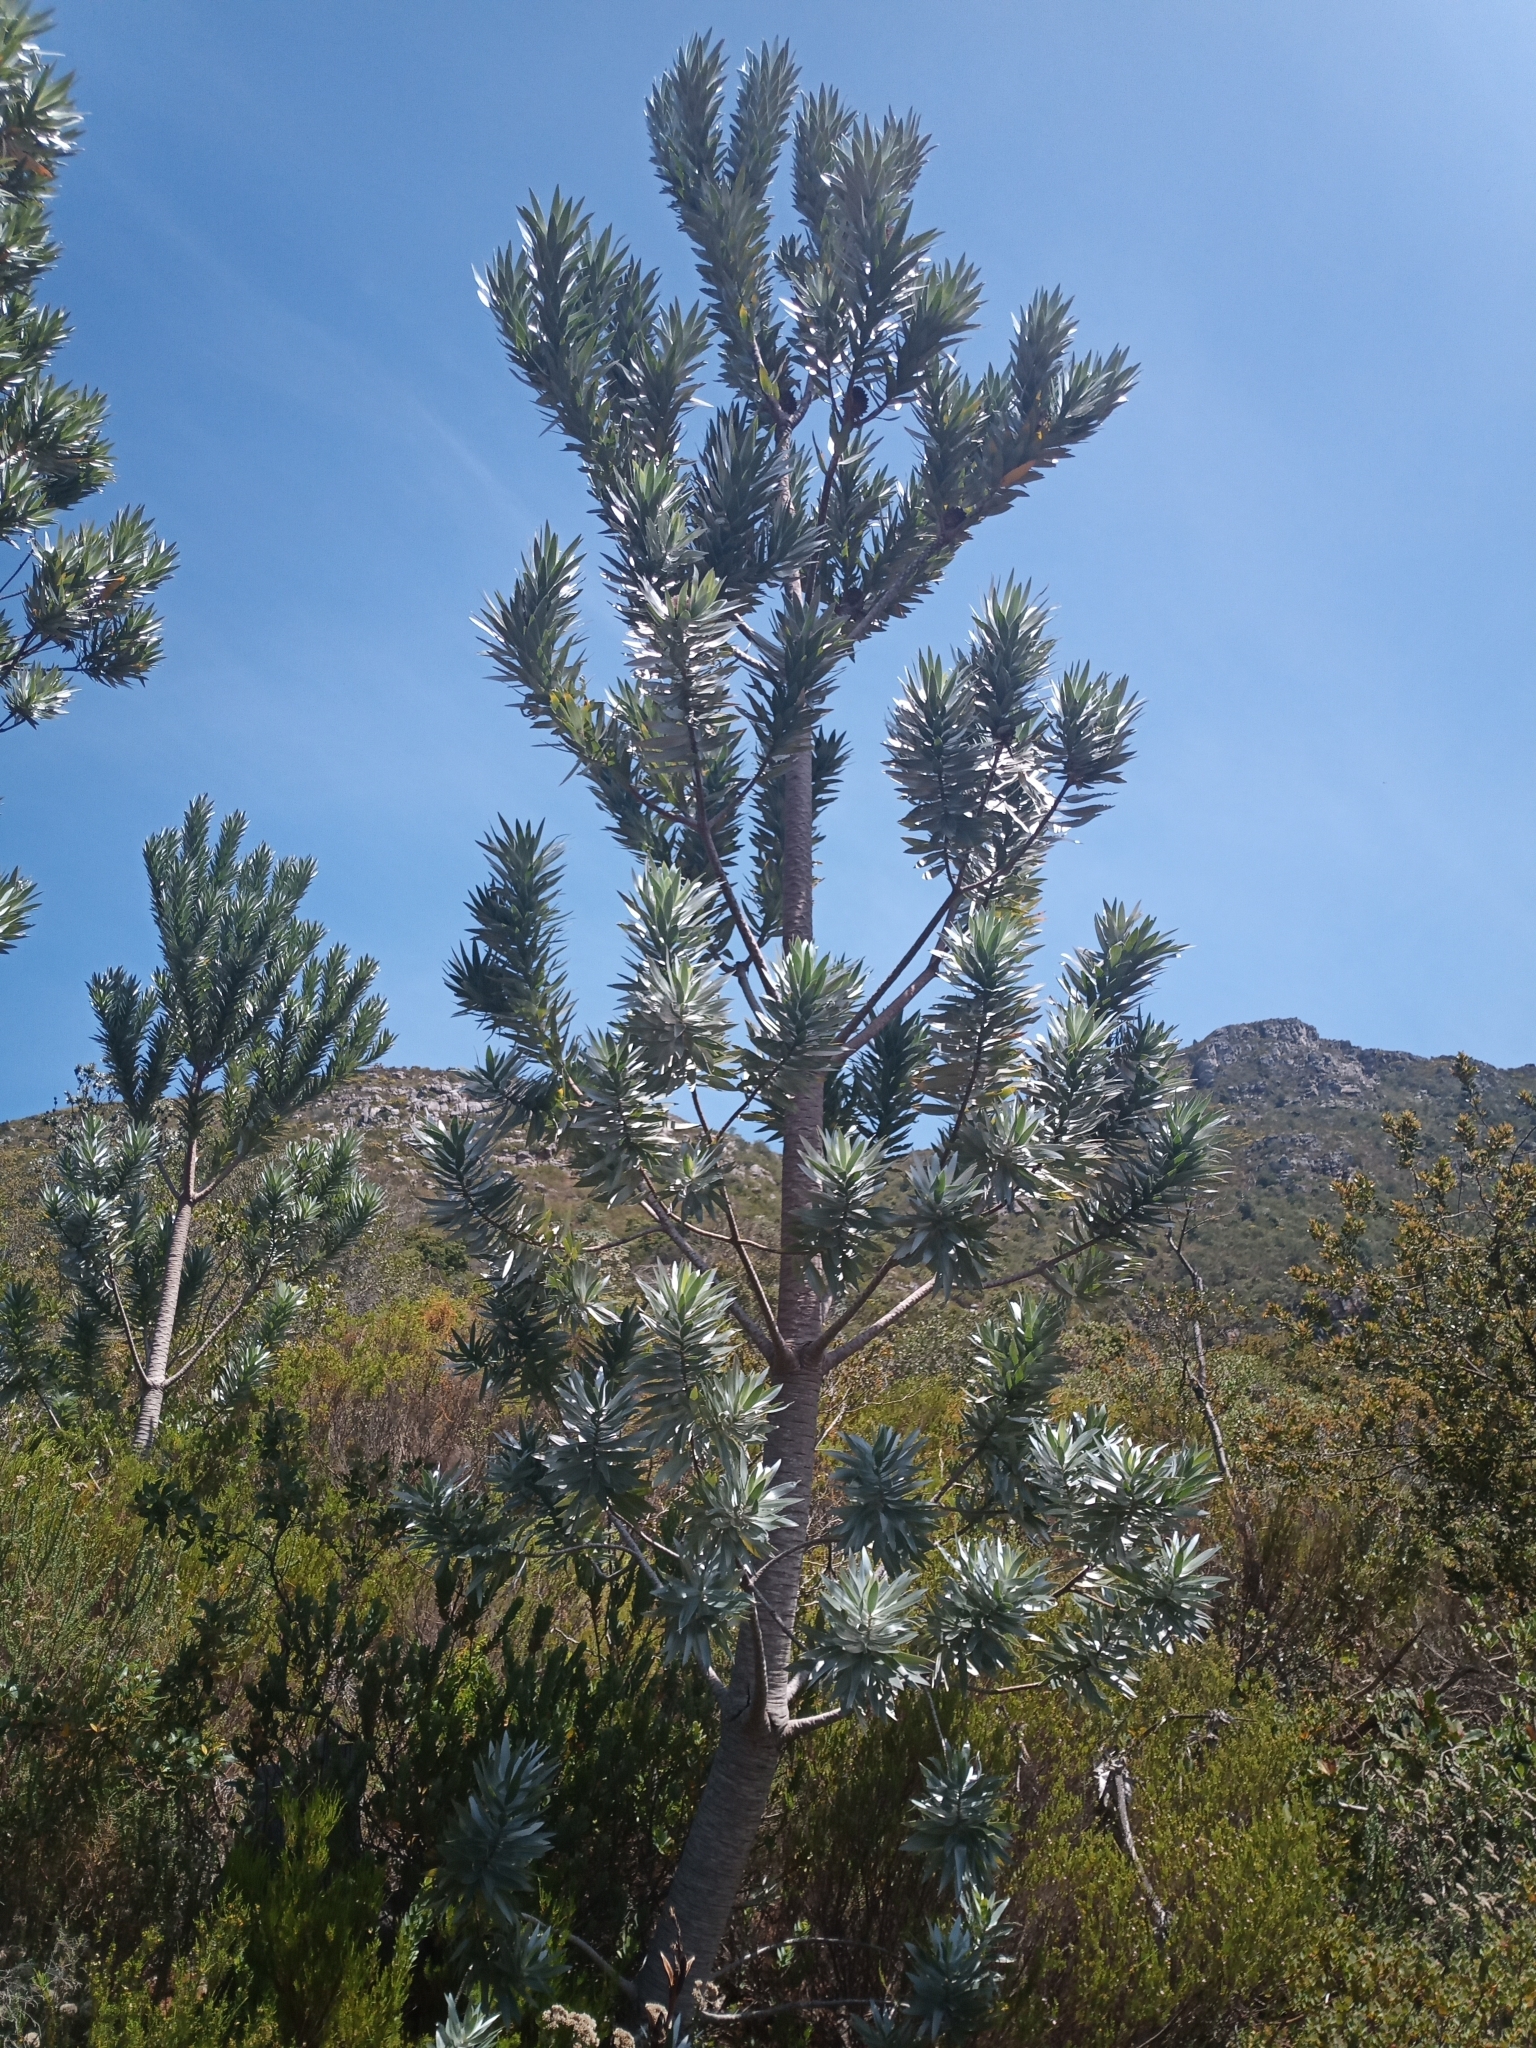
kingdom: Plantae
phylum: Tracheophyta
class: Magnoliopsida
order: Proteales
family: Proteaceae
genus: Leucadendron
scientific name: Leucadendron argenteum
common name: Cape silver tree
